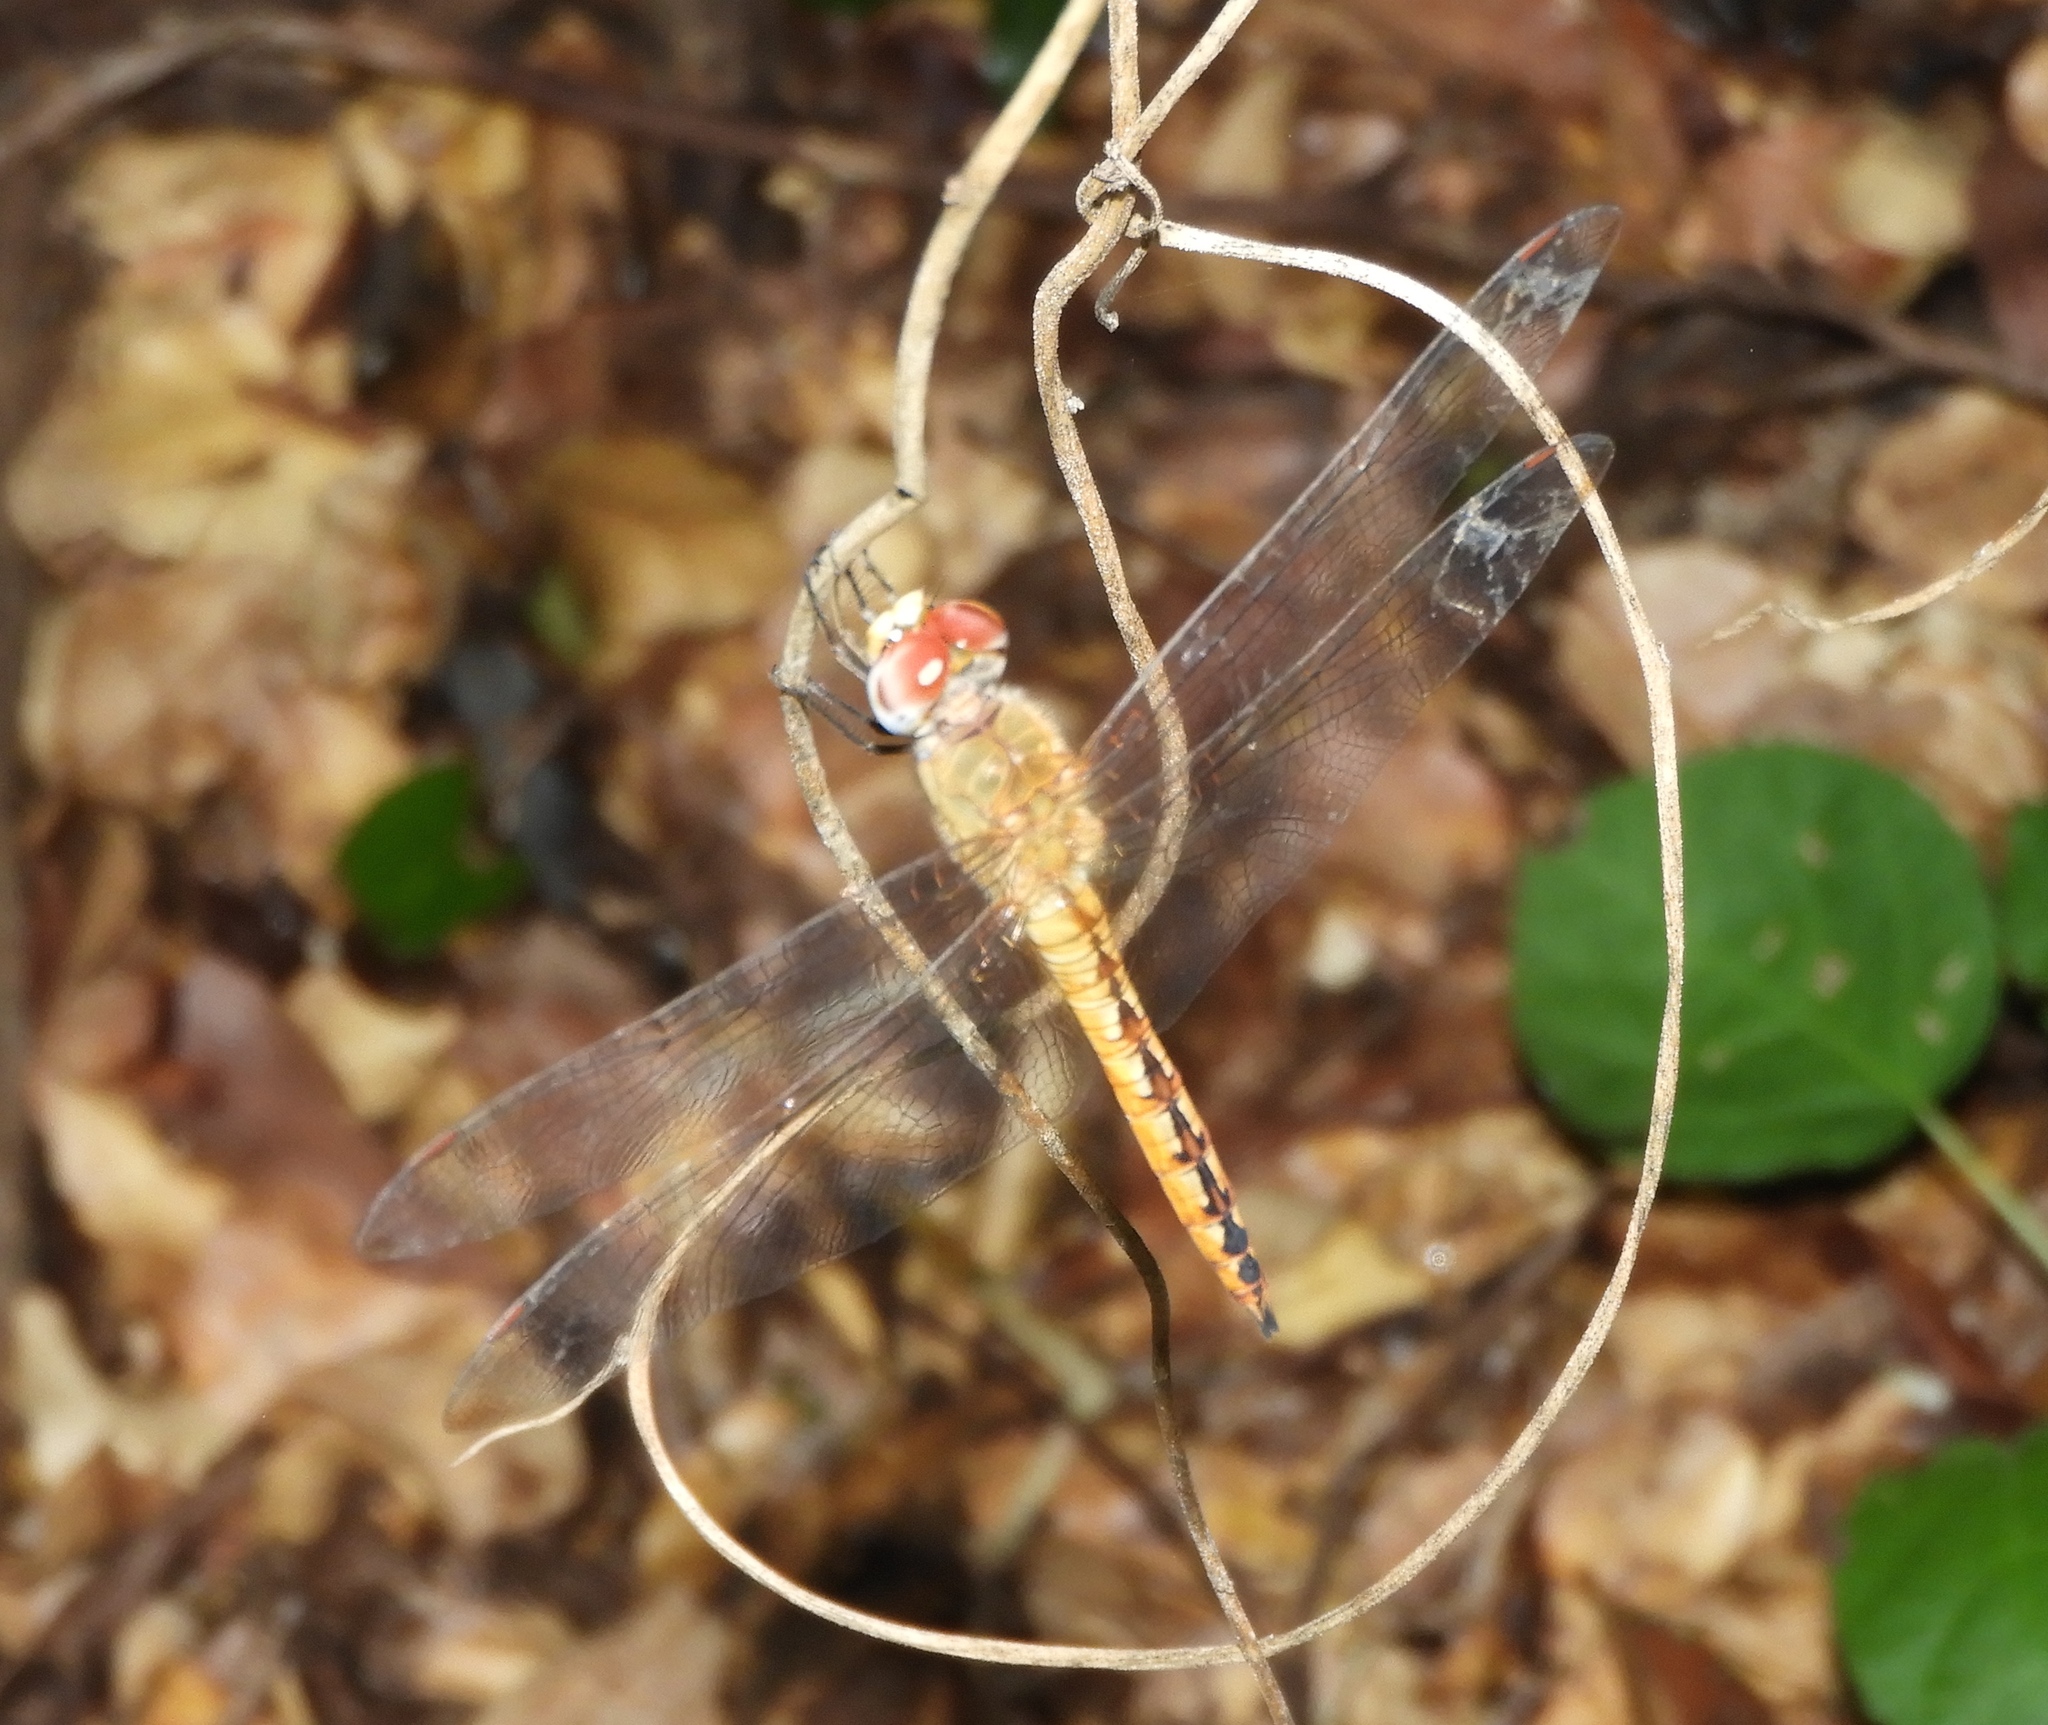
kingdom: Animalia
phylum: Arthropoda
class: Insecta
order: Odonata
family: Libellulidae
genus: Pantala
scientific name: Pantala flavescens
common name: Wandering glider
